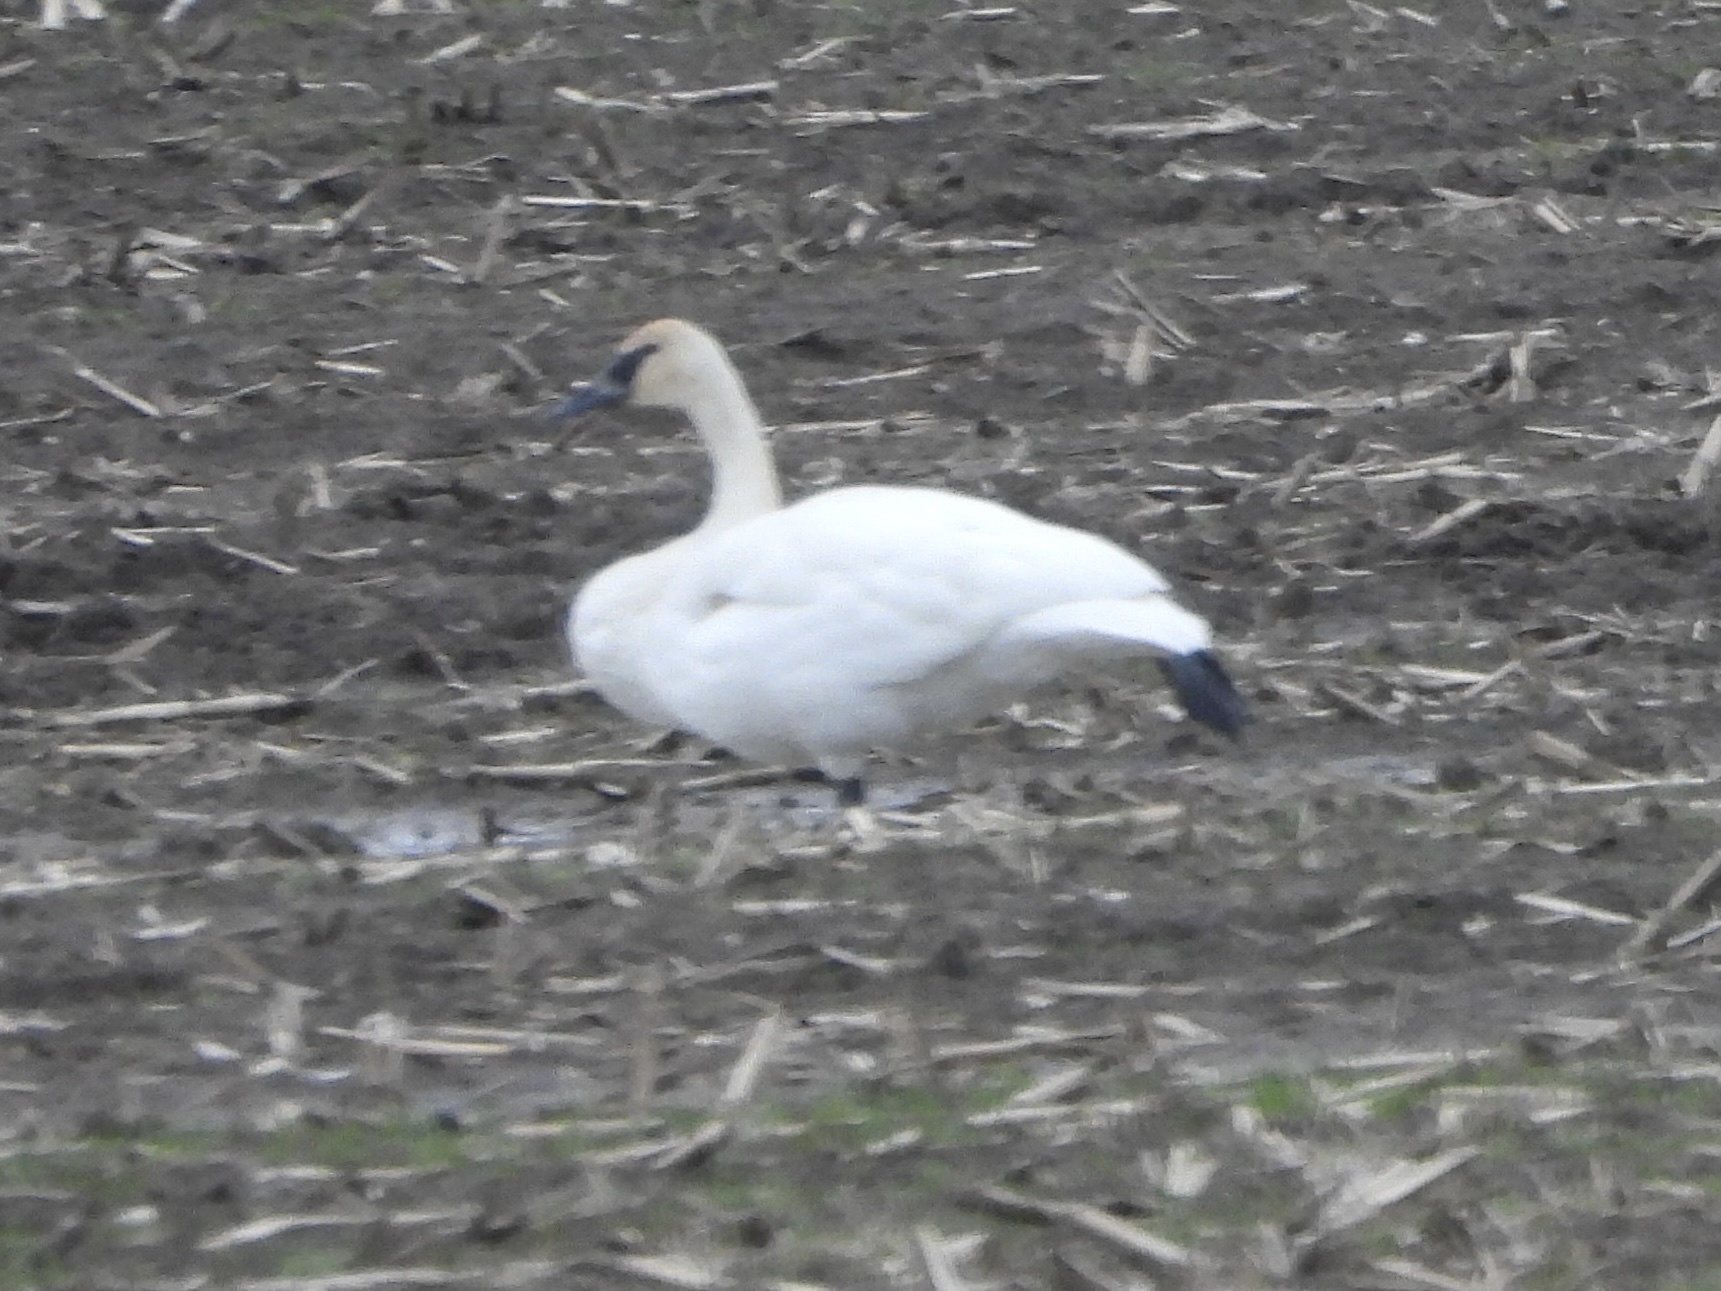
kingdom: Animalia
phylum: Chordata
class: Aves
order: Anseriformes
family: Anatidae
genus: Cygnus
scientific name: Cygnus buccinator
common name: Trumpeter swan
